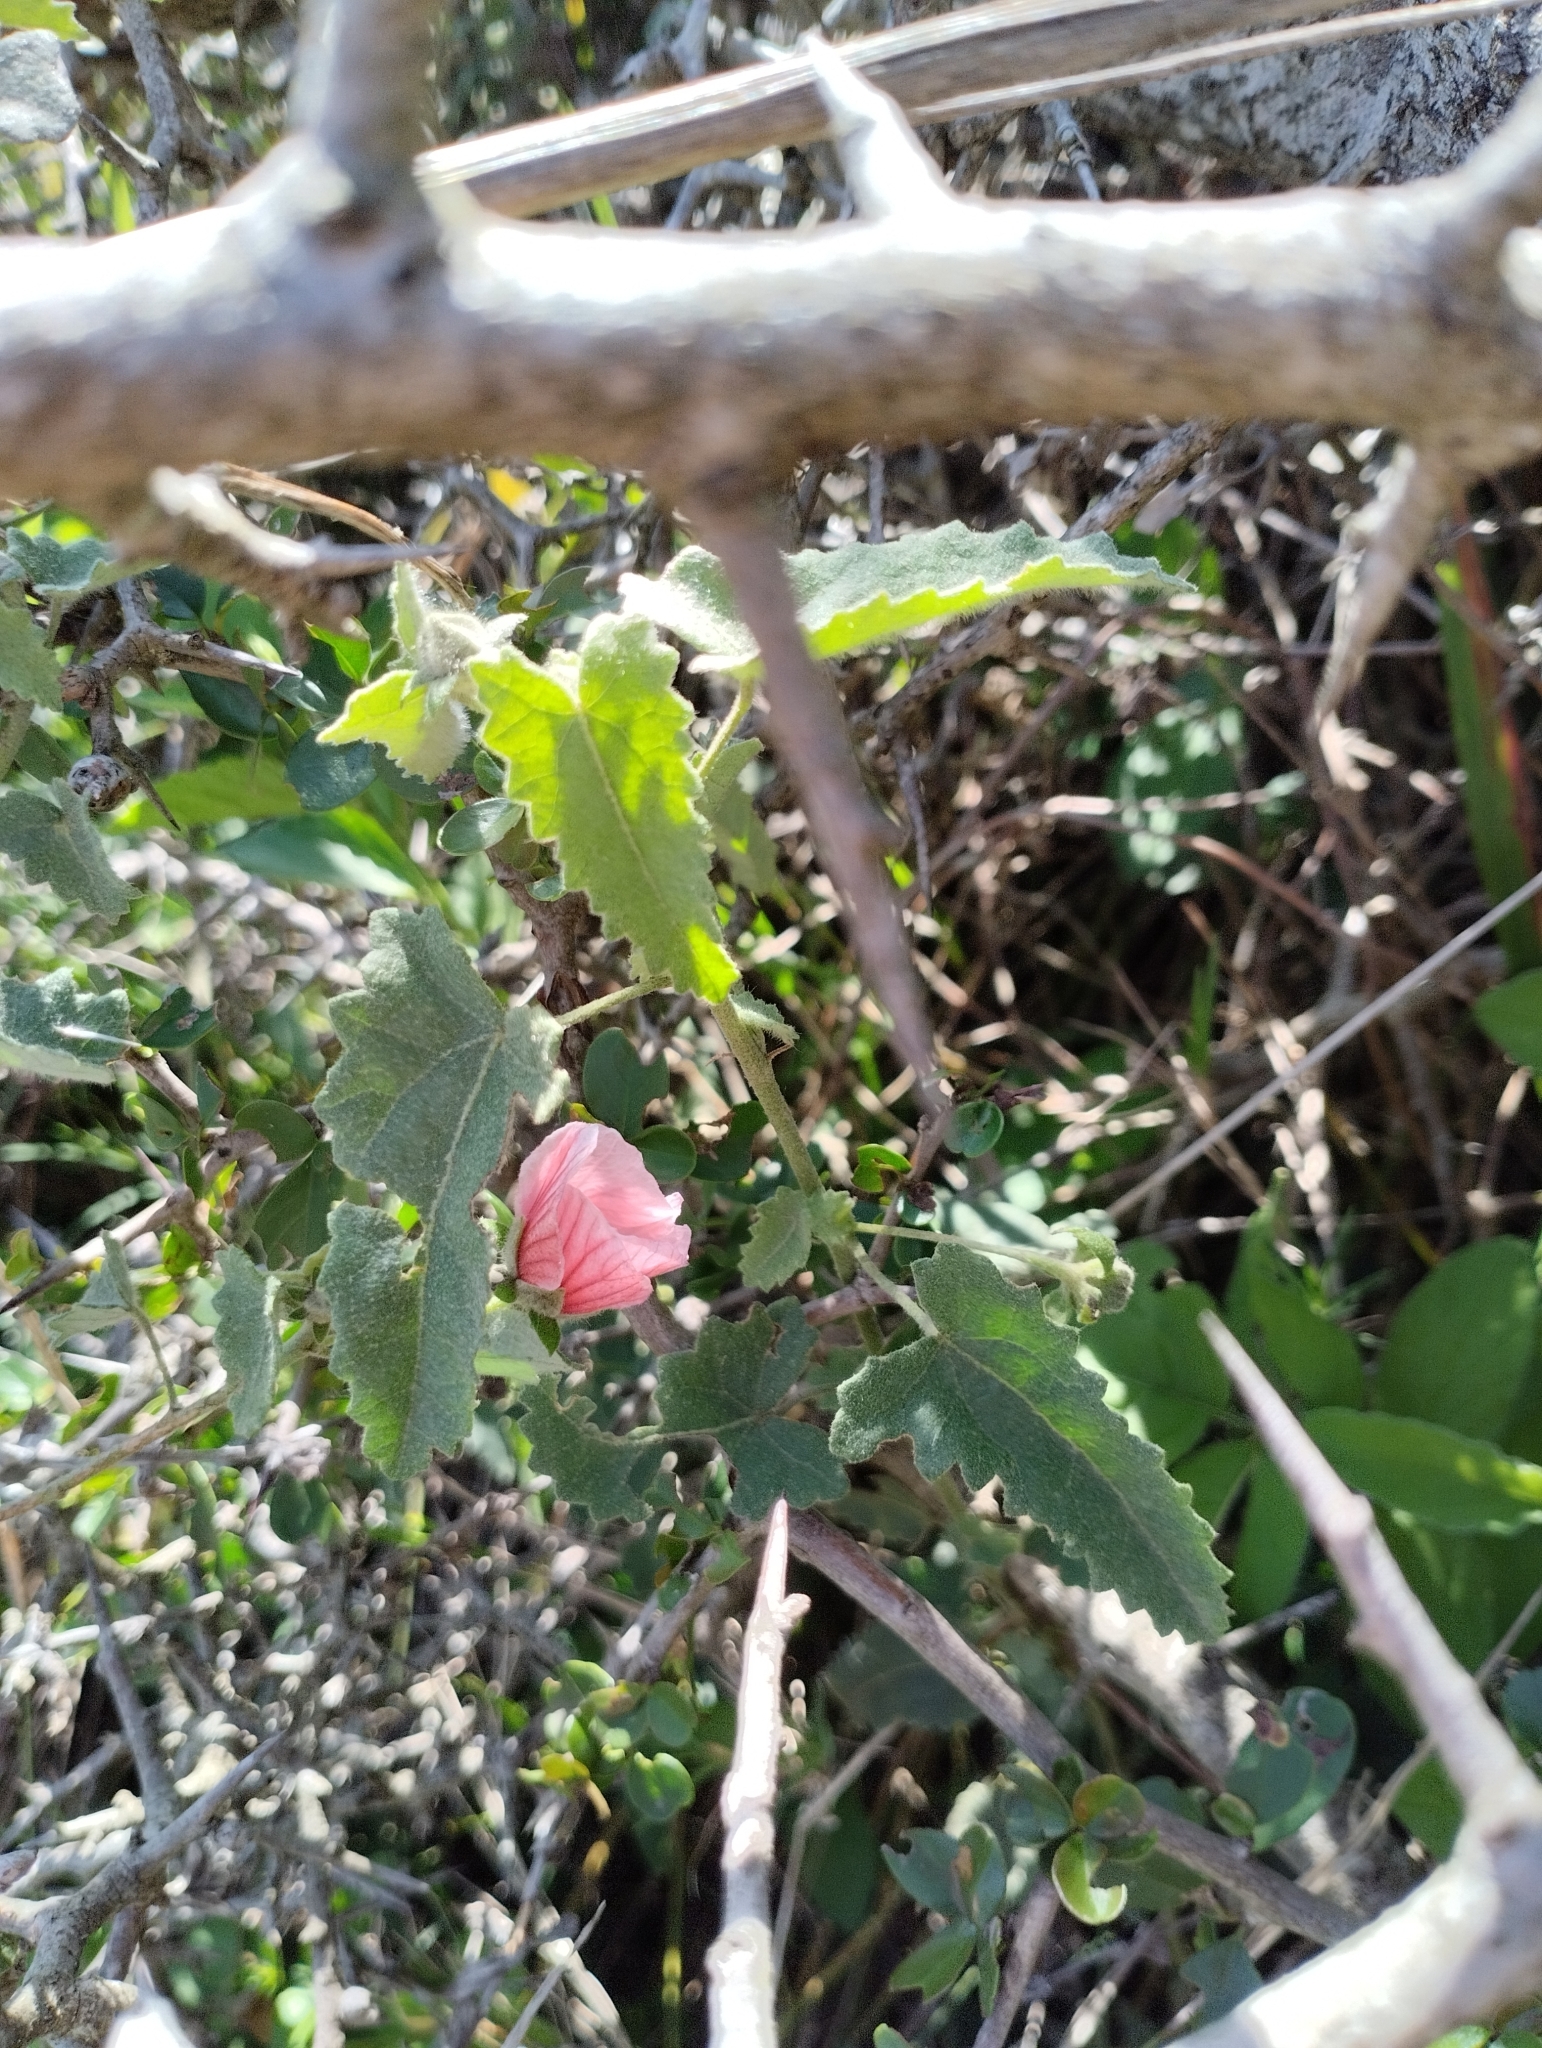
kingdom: Plantae
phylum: Tracheophyta
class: Magnoliopsida
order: Malvales
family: Malvaceae
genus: Pavonia
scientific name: Pavonia orientalis
